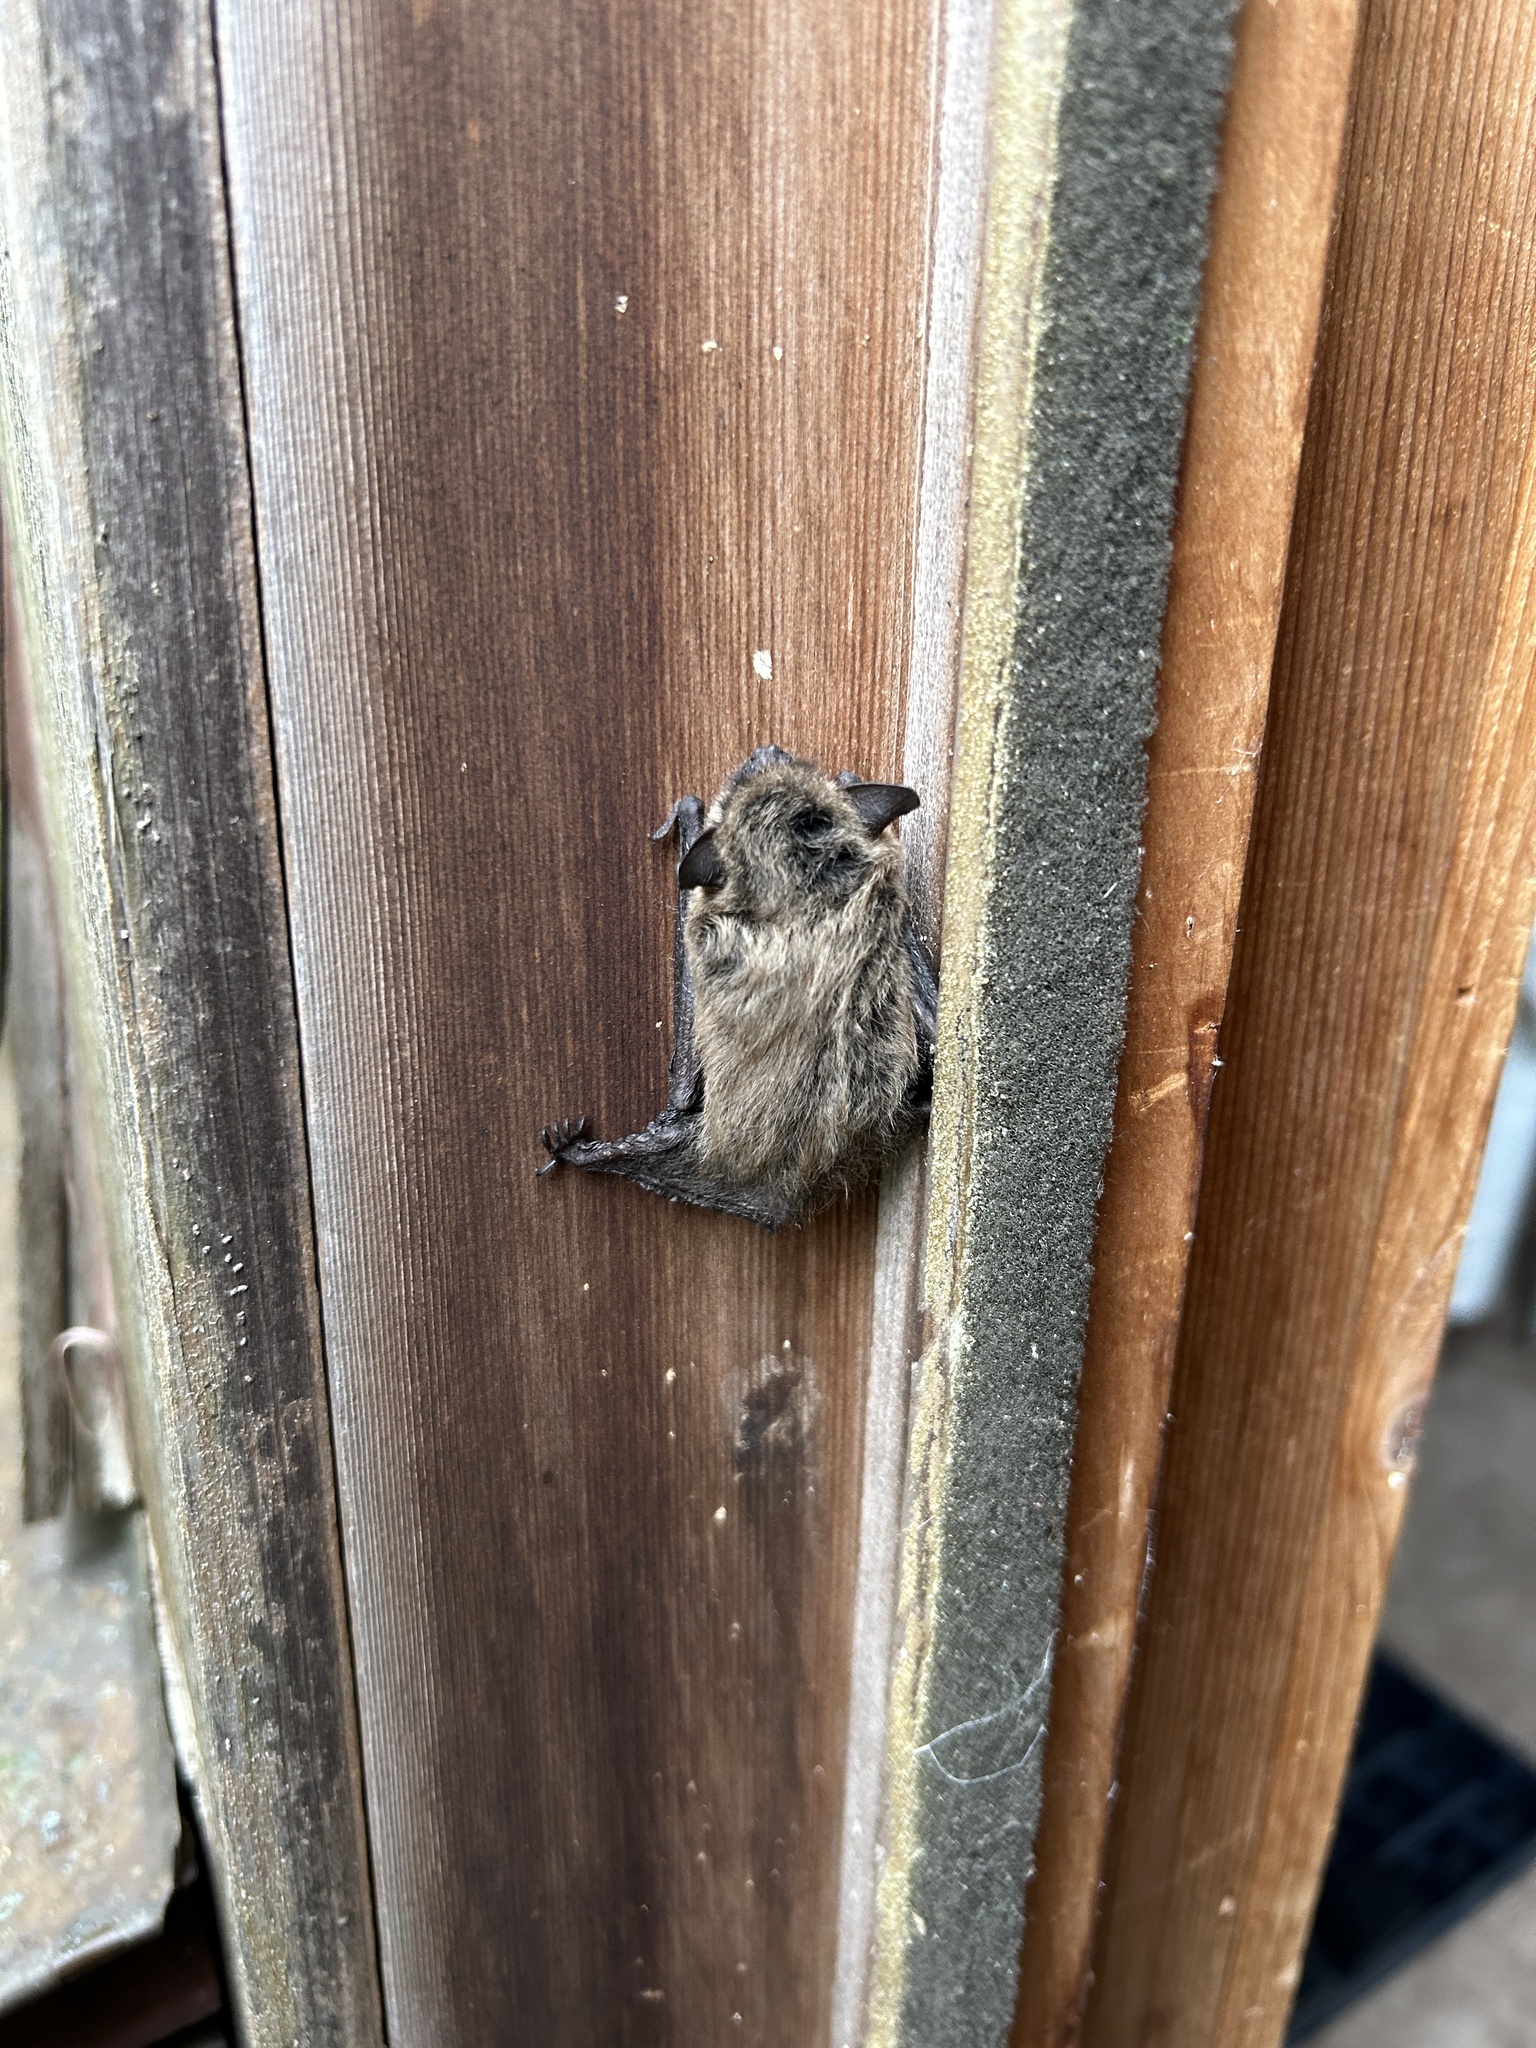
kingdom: Animalia
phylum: Chordata
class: Mammalia
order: Chiroptera
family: Vespertilionidae
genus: Myotis
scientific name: Myotis leibii
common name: Eastern small-footed myotis
